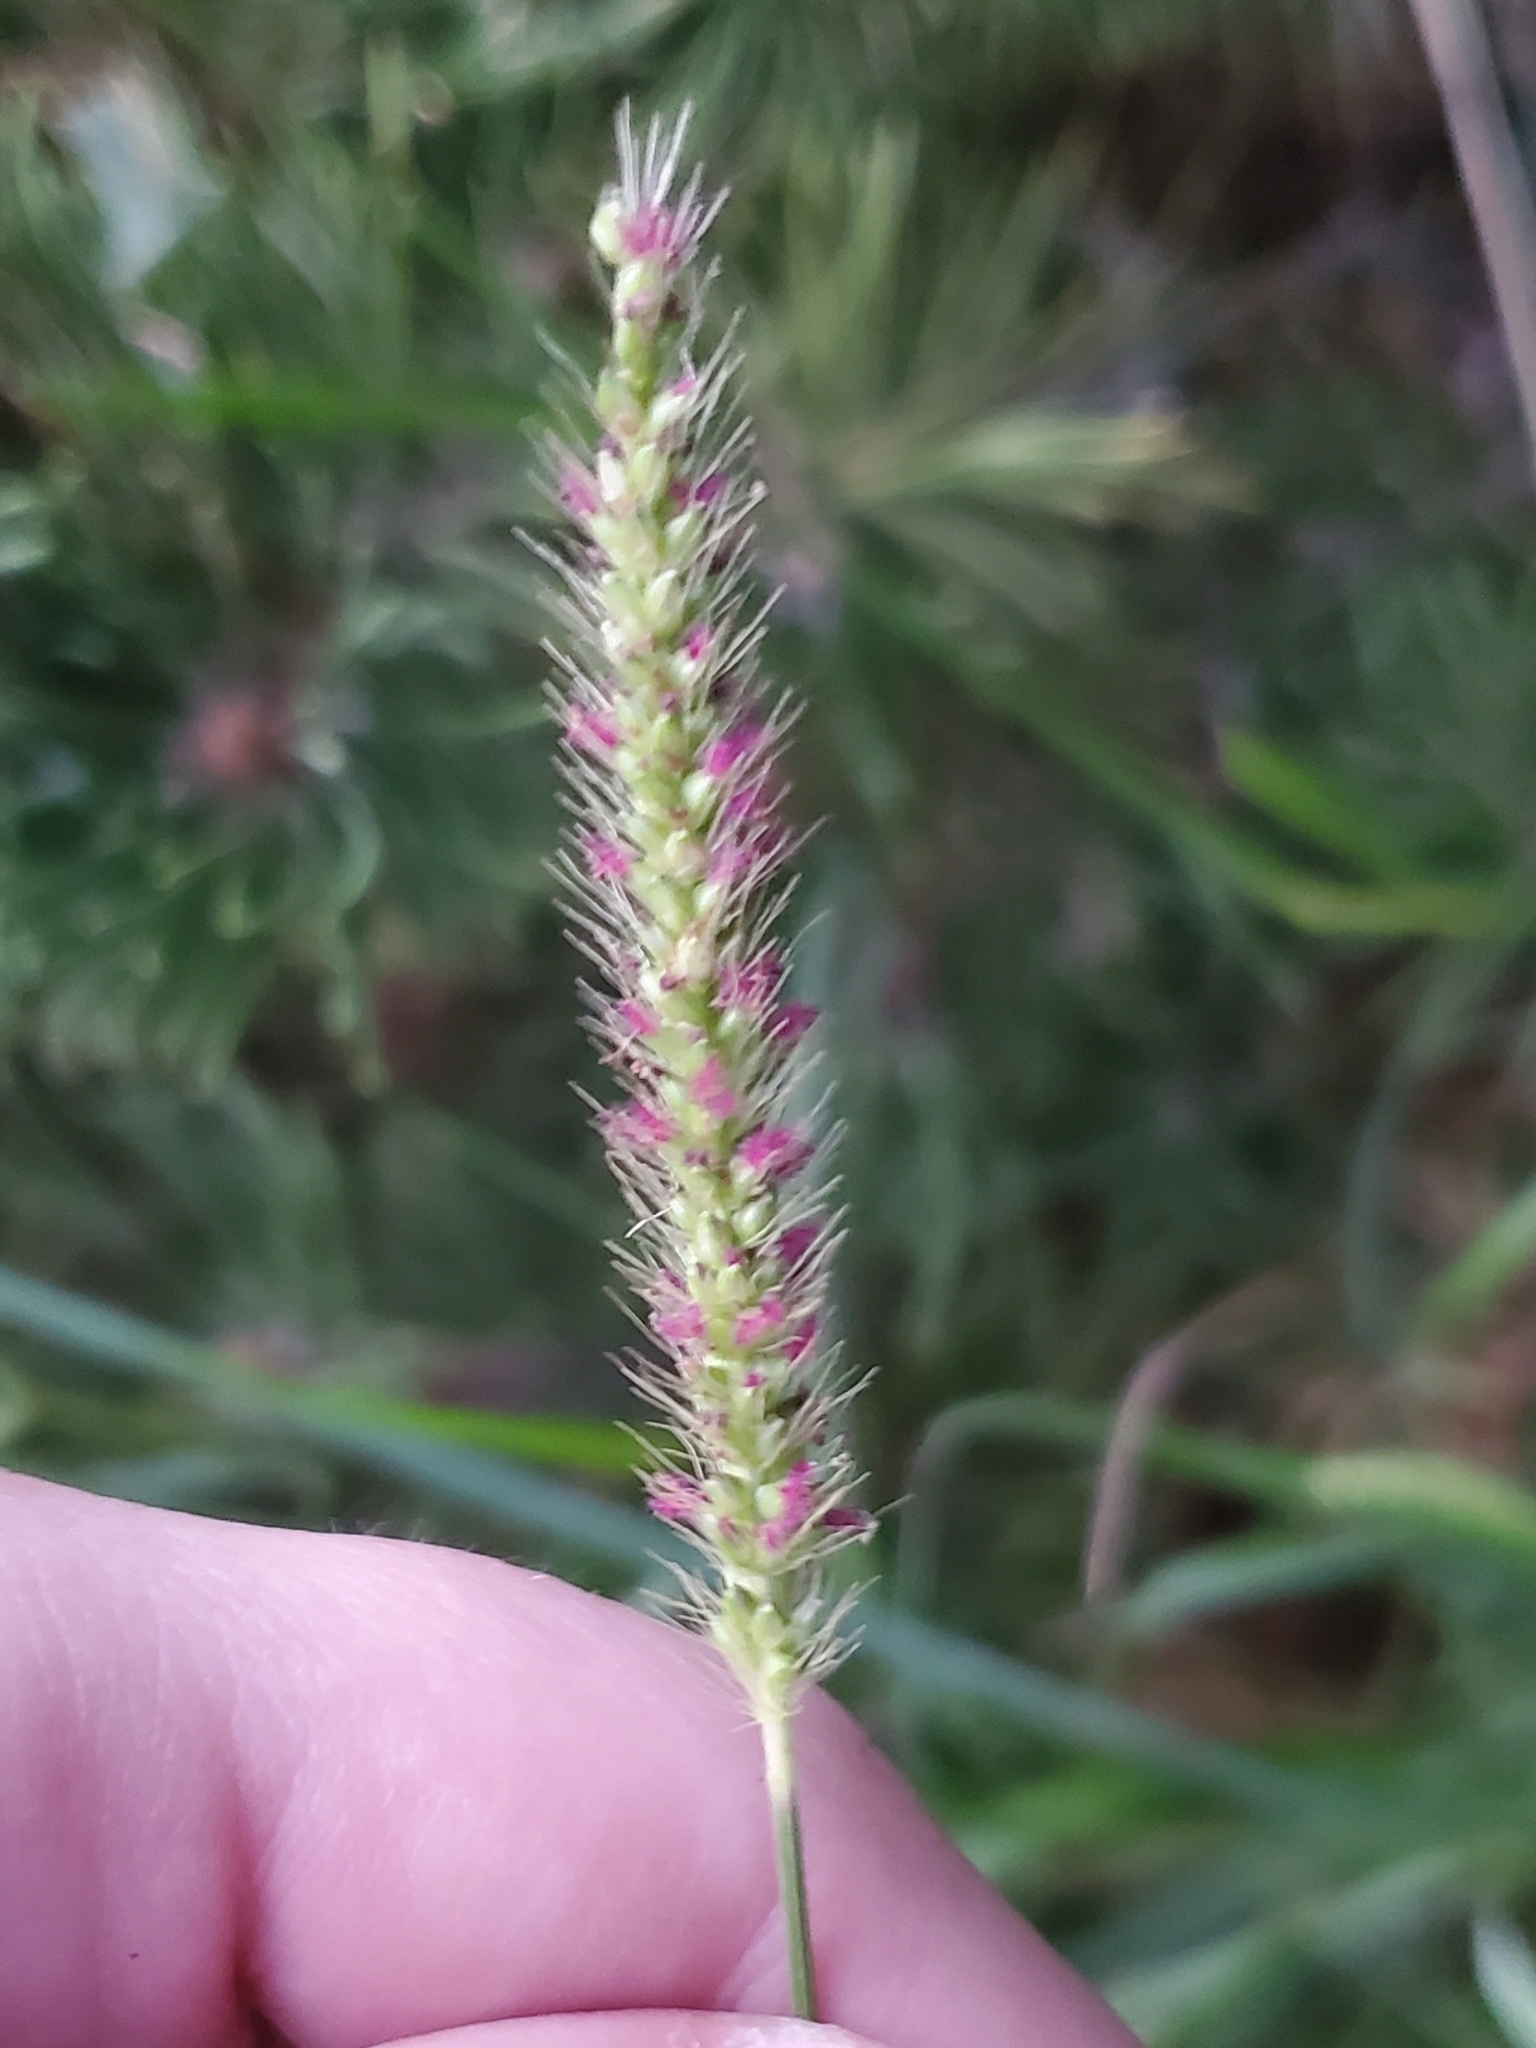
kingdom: Plantae
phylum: Tracheophyta
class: Liliopsida
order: Poales
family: Poaceae
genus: Setaria
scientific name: Setaria parviflora
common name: Knotroot bristle-grass
